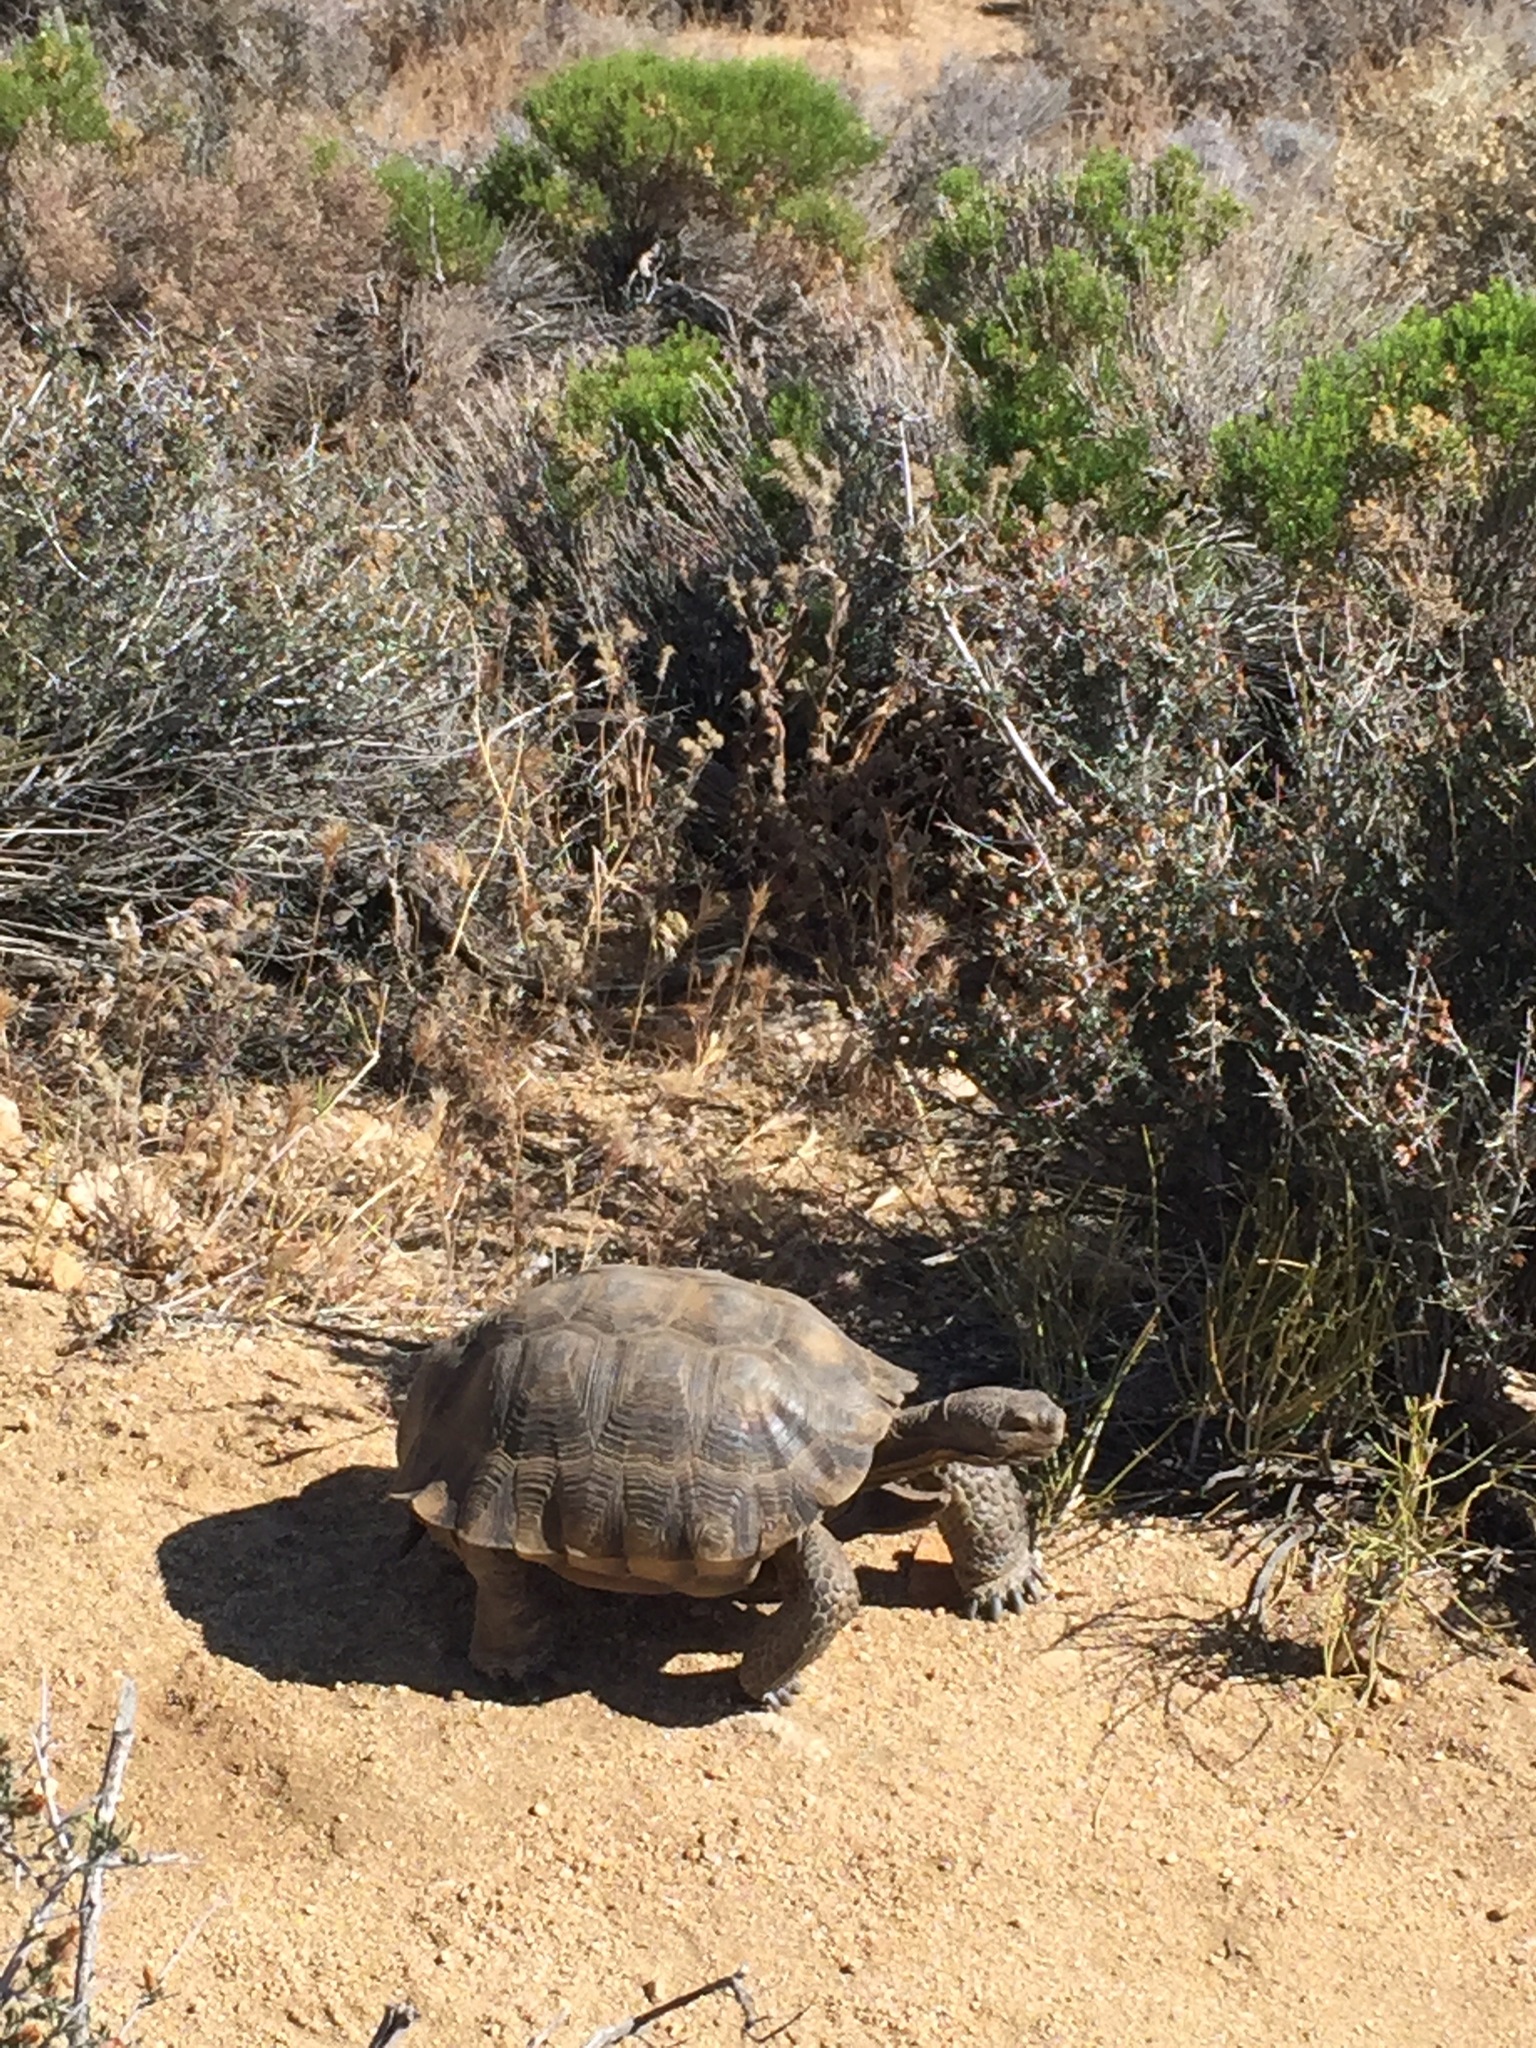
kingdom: Animalia
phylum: Chordata
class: Testudines
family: Testudinidae
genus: Gopherus
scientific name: Gopherus agassizii
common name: Mojave desert tortoise
